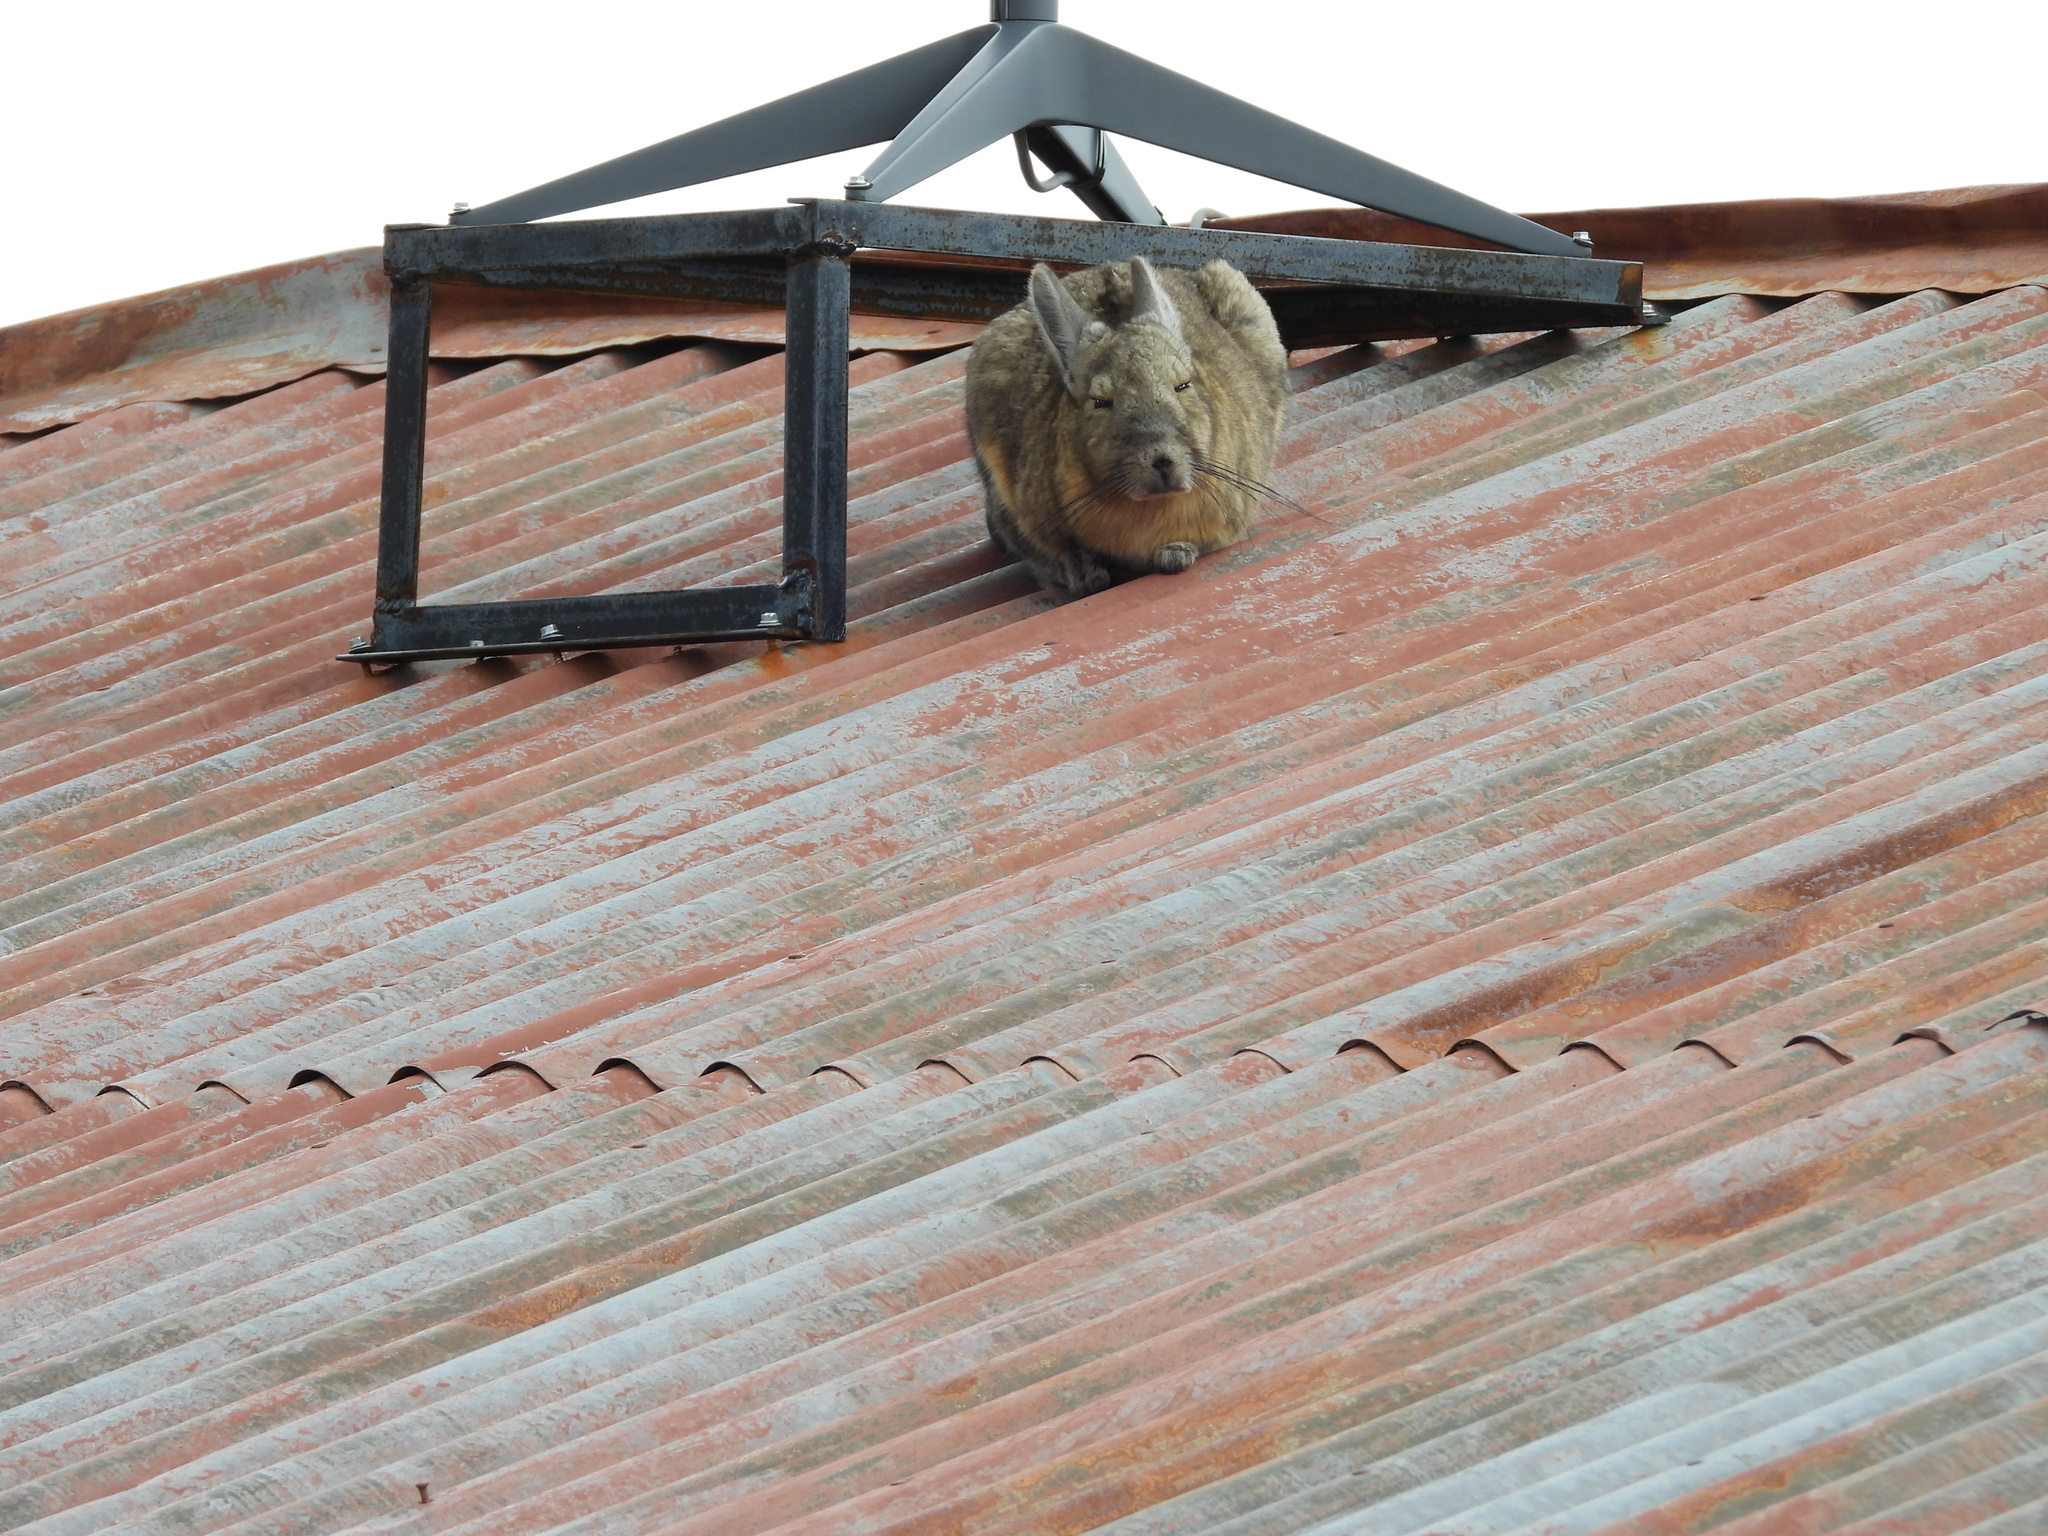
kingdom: Animalia
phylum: Chordata
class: Mammalia
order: Rodentia
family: Chinchillidae
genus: Lagidium
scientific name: Lagidium viscacia
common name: Southern viscacha
